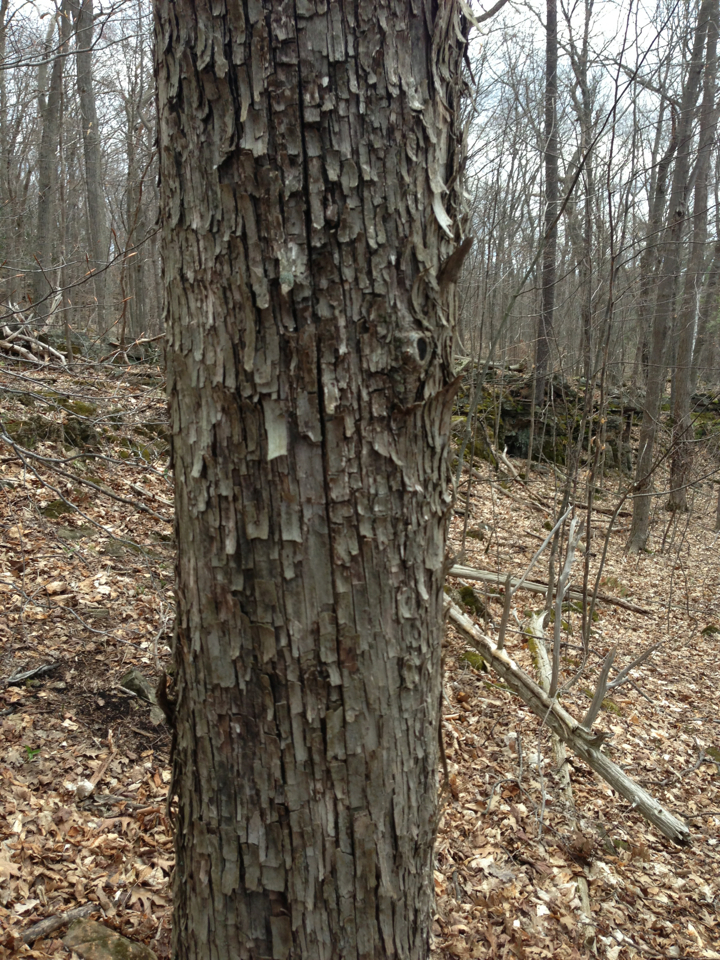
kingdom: Plantae
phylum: Tracheophyta
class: Magnoliopsida
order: Fagales
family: Betulaceae
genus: Ostrya
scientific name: Ostrya virginiana
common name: Ironwood
